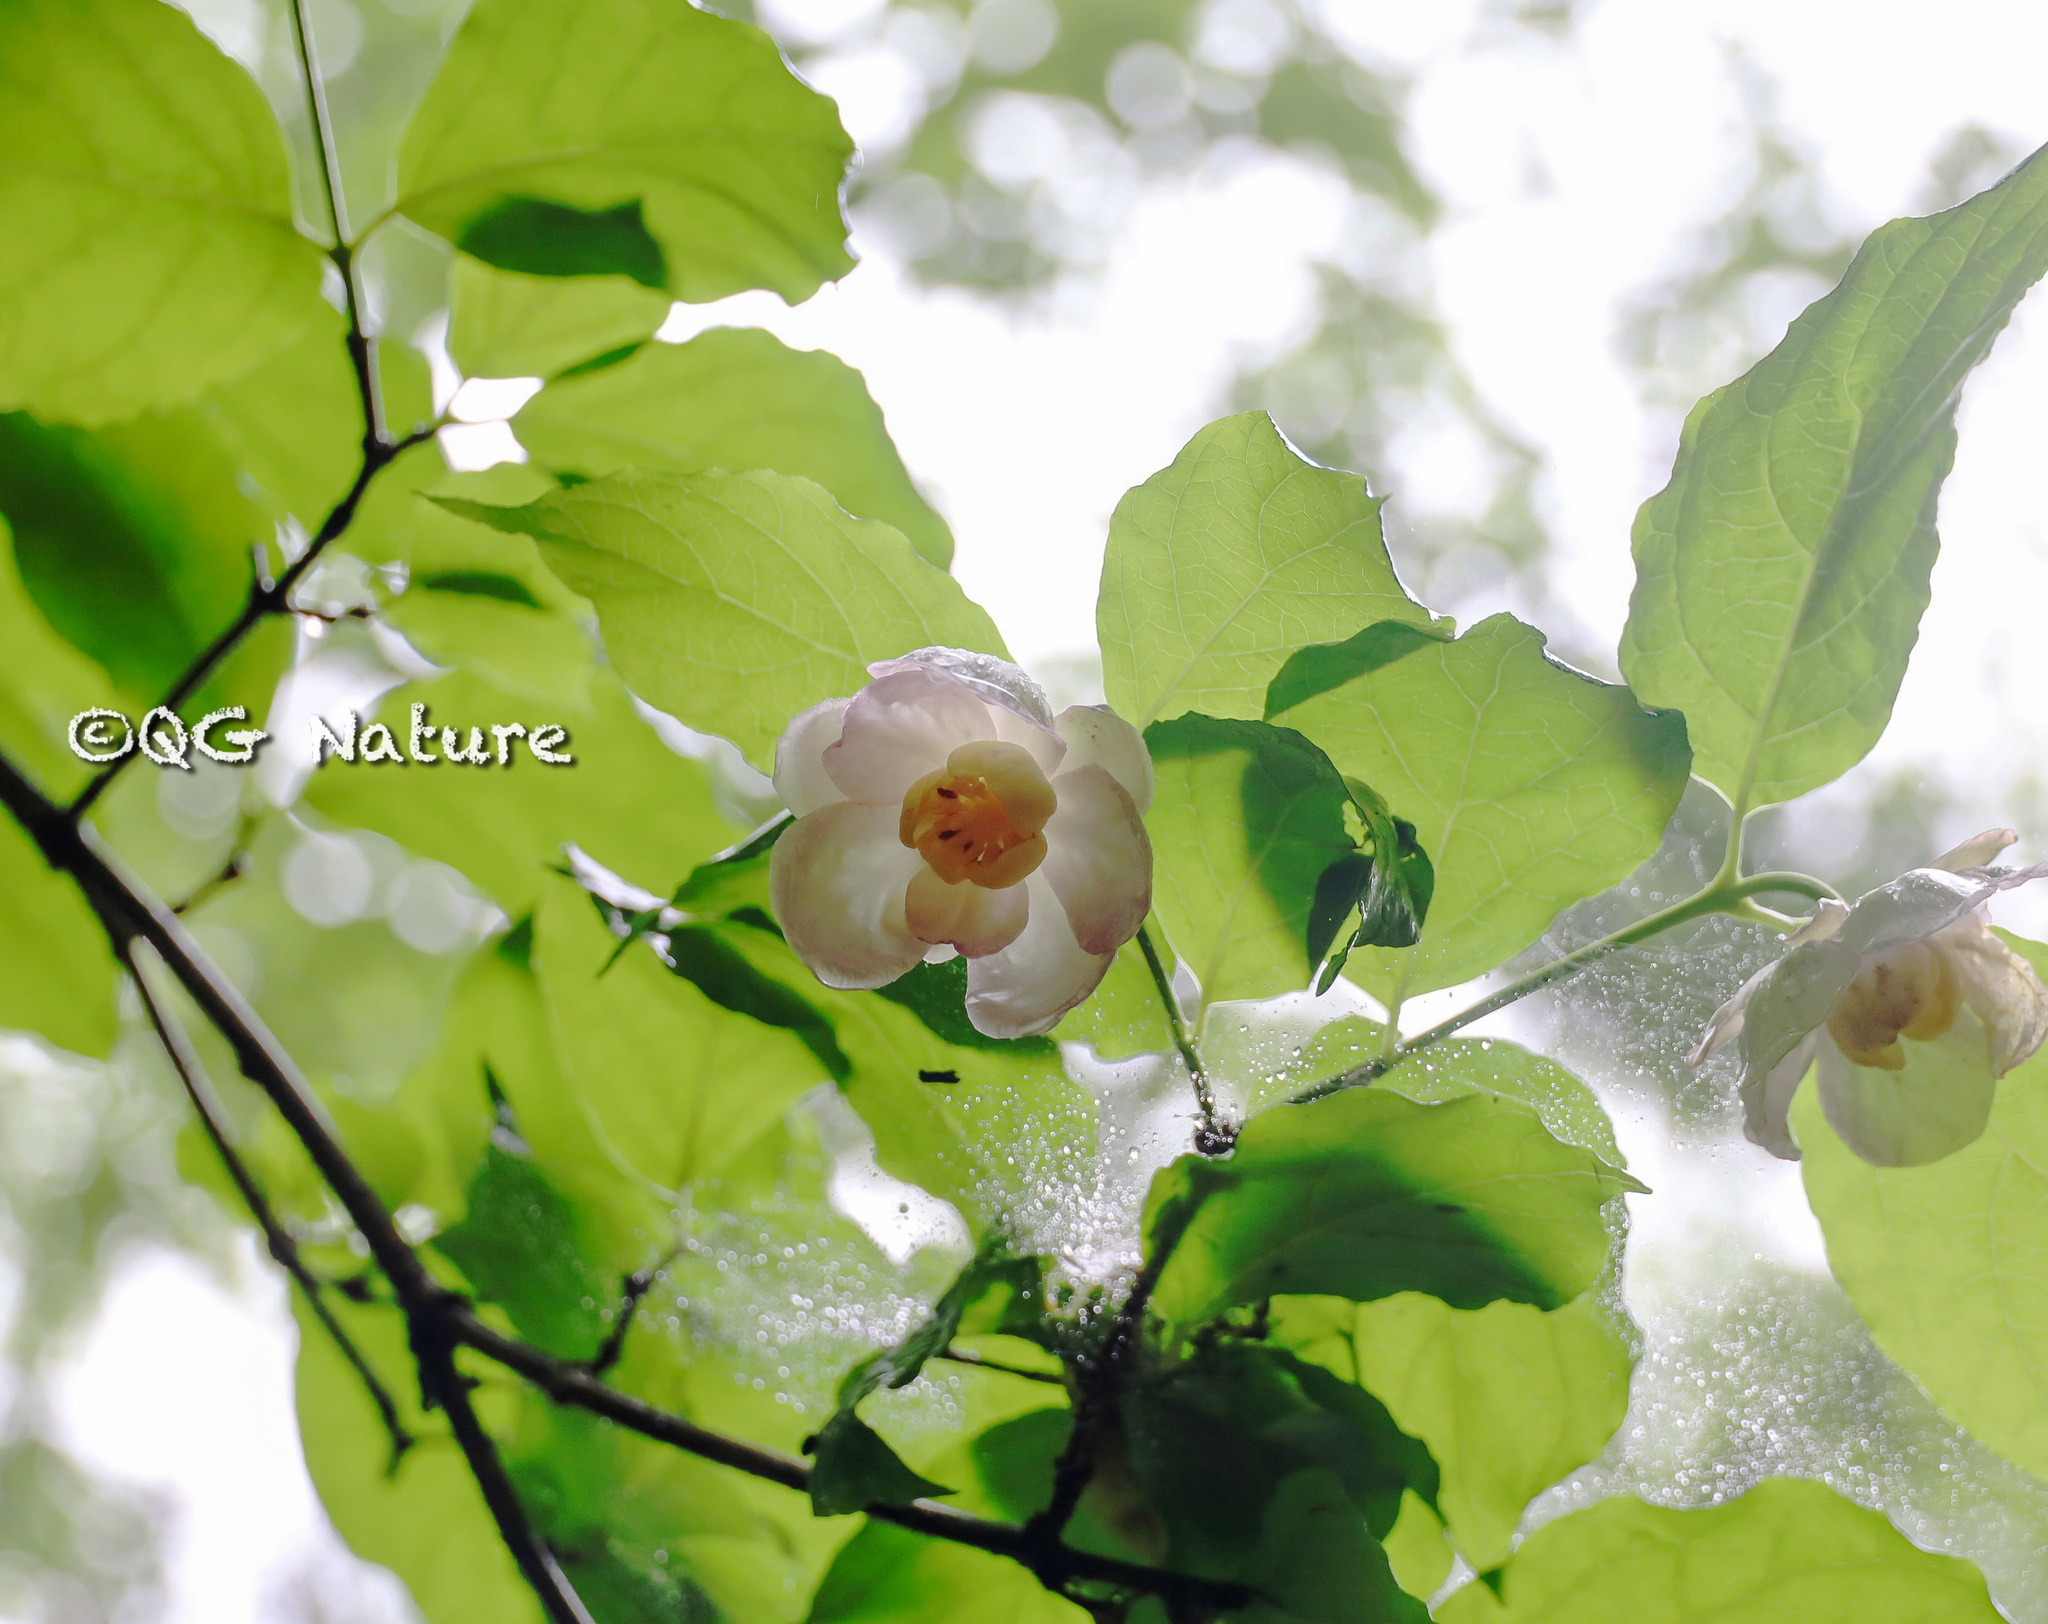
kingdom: Plantae
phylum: Tracheophyta
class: Magnoliopsida
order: Laurales
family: Calycanthaceae
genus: Calycanthus
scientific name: Calycanthus chinensis
